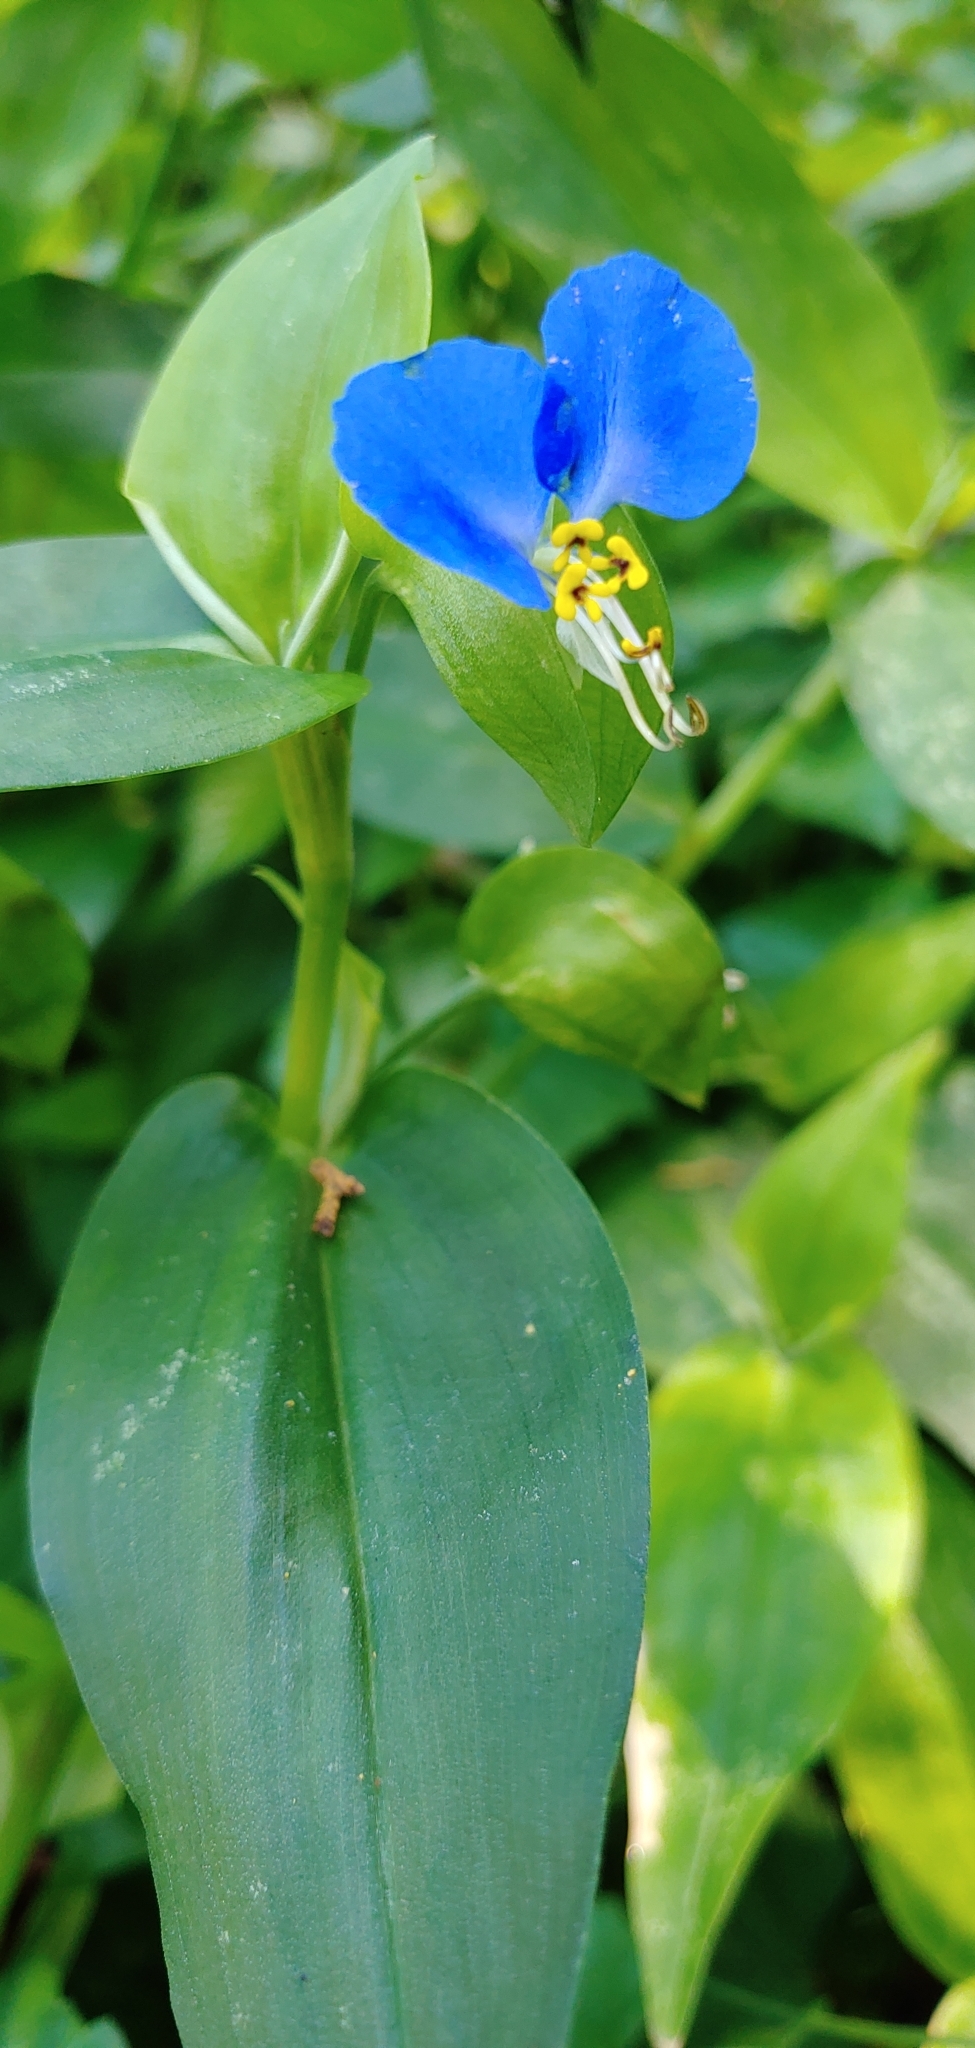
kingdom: Plantae
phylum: Tracheophyta
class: Liliopsida
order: Commelinales
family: Commelinaceae
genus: Commelina
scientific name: Commelina communis
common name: Asiatic dayflower
